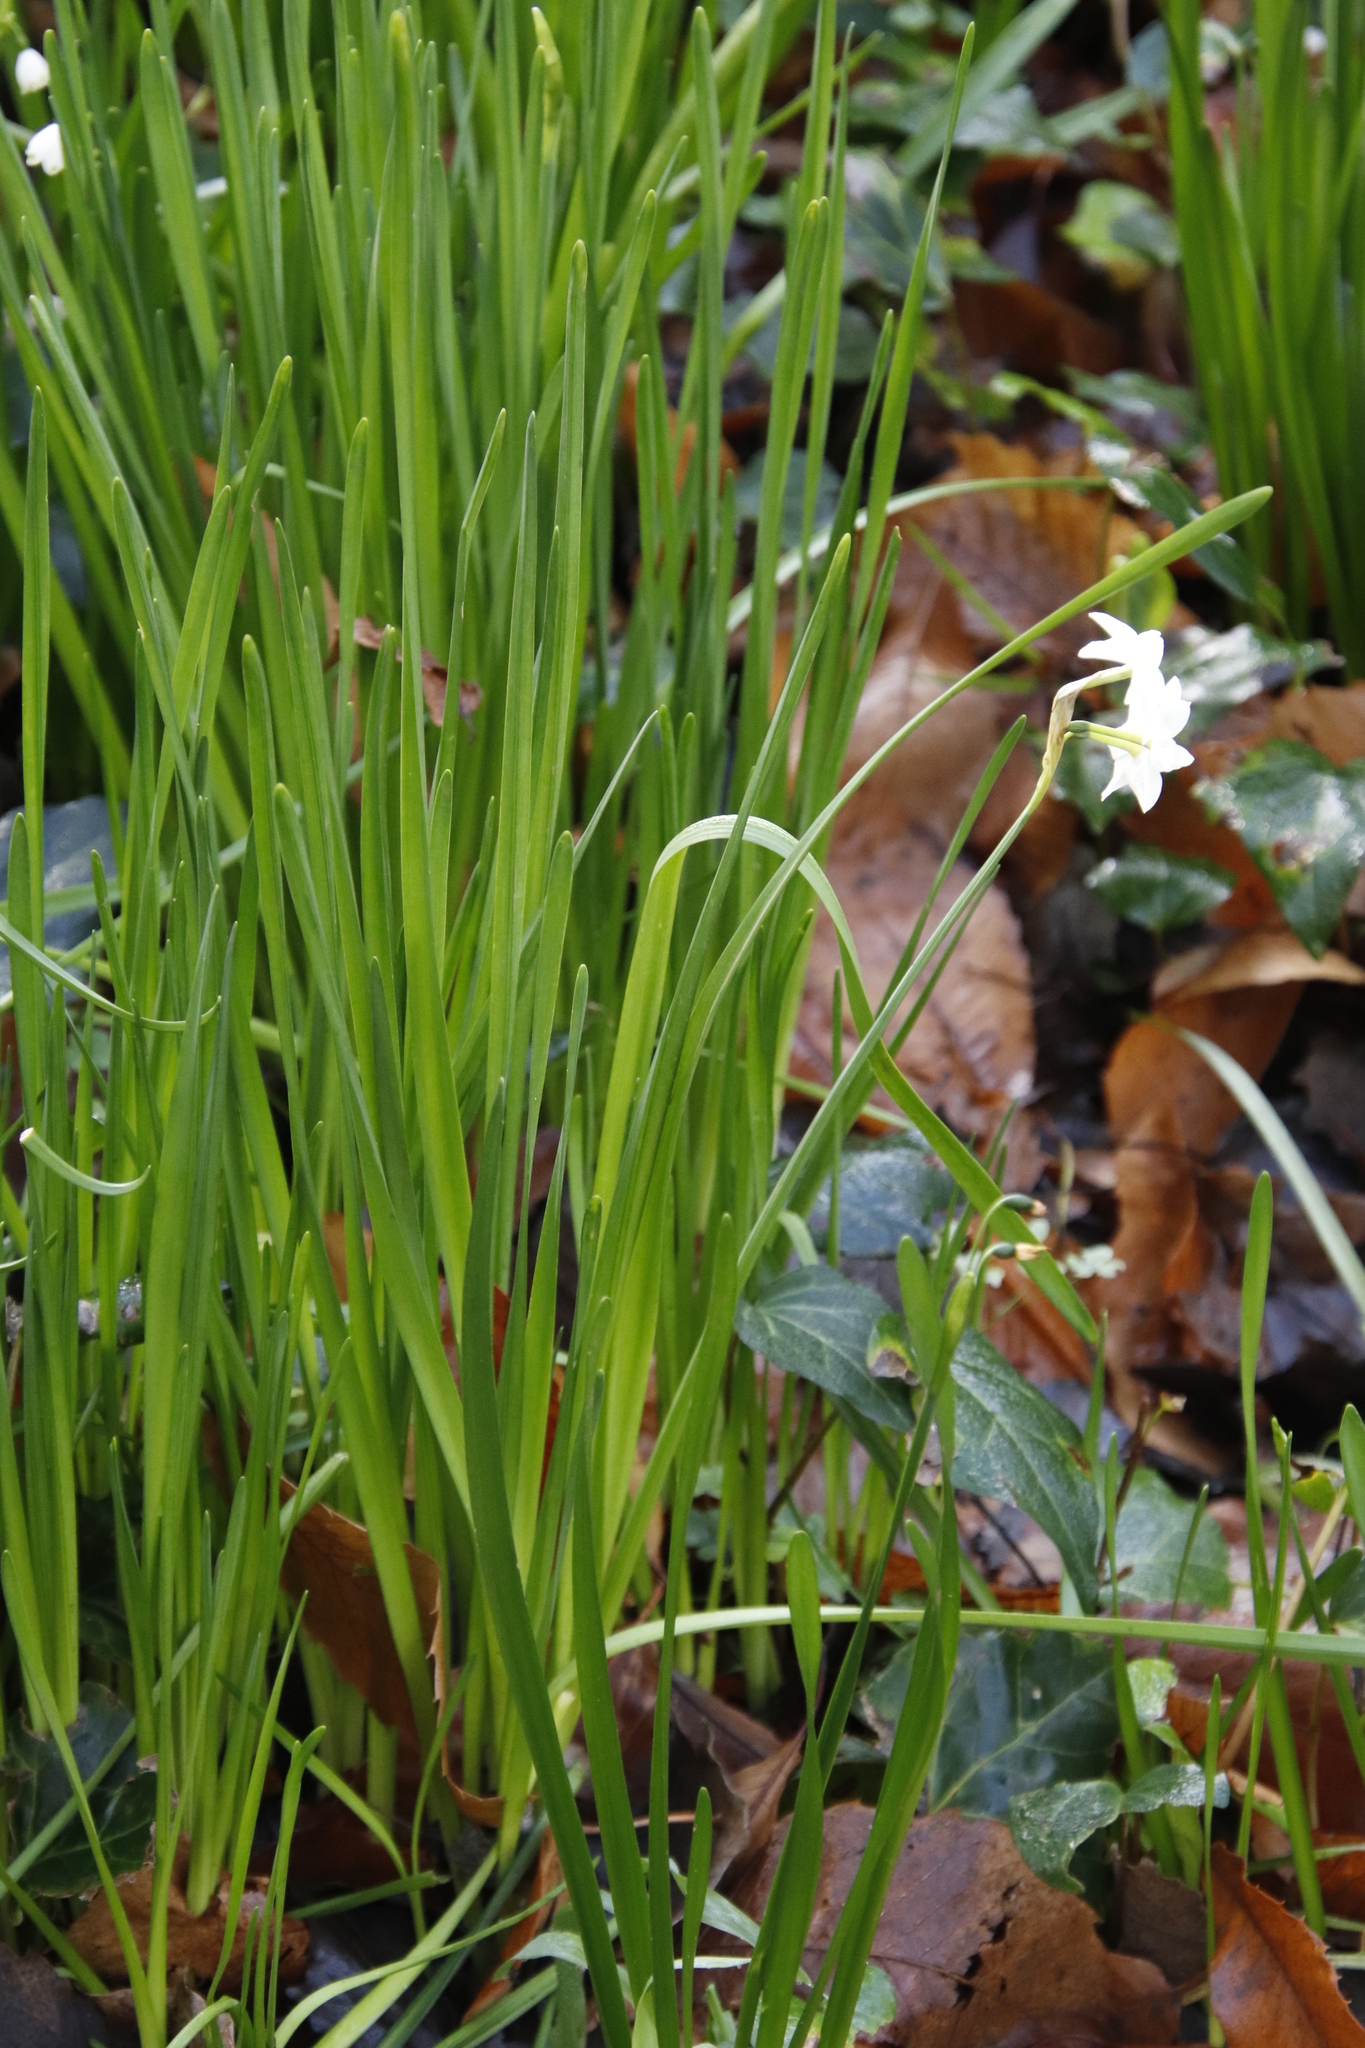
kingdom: Plantae
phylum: Tracheophyta
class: Liliopsida
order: Asparagales
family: Amaryllidaceae
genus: Narcissus
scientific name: Narcissus papyraceus
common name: Paper-white daffodil
